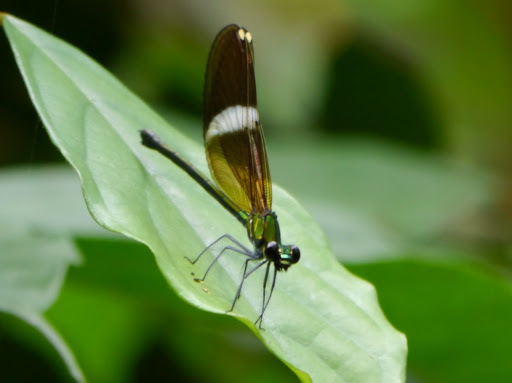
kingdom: Animalia
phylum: Arthropoda
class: Insecta
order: Odonata
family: Calopterygidae
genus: Sapho
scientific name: Sapho gloriosa
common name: Glorious bluewing
